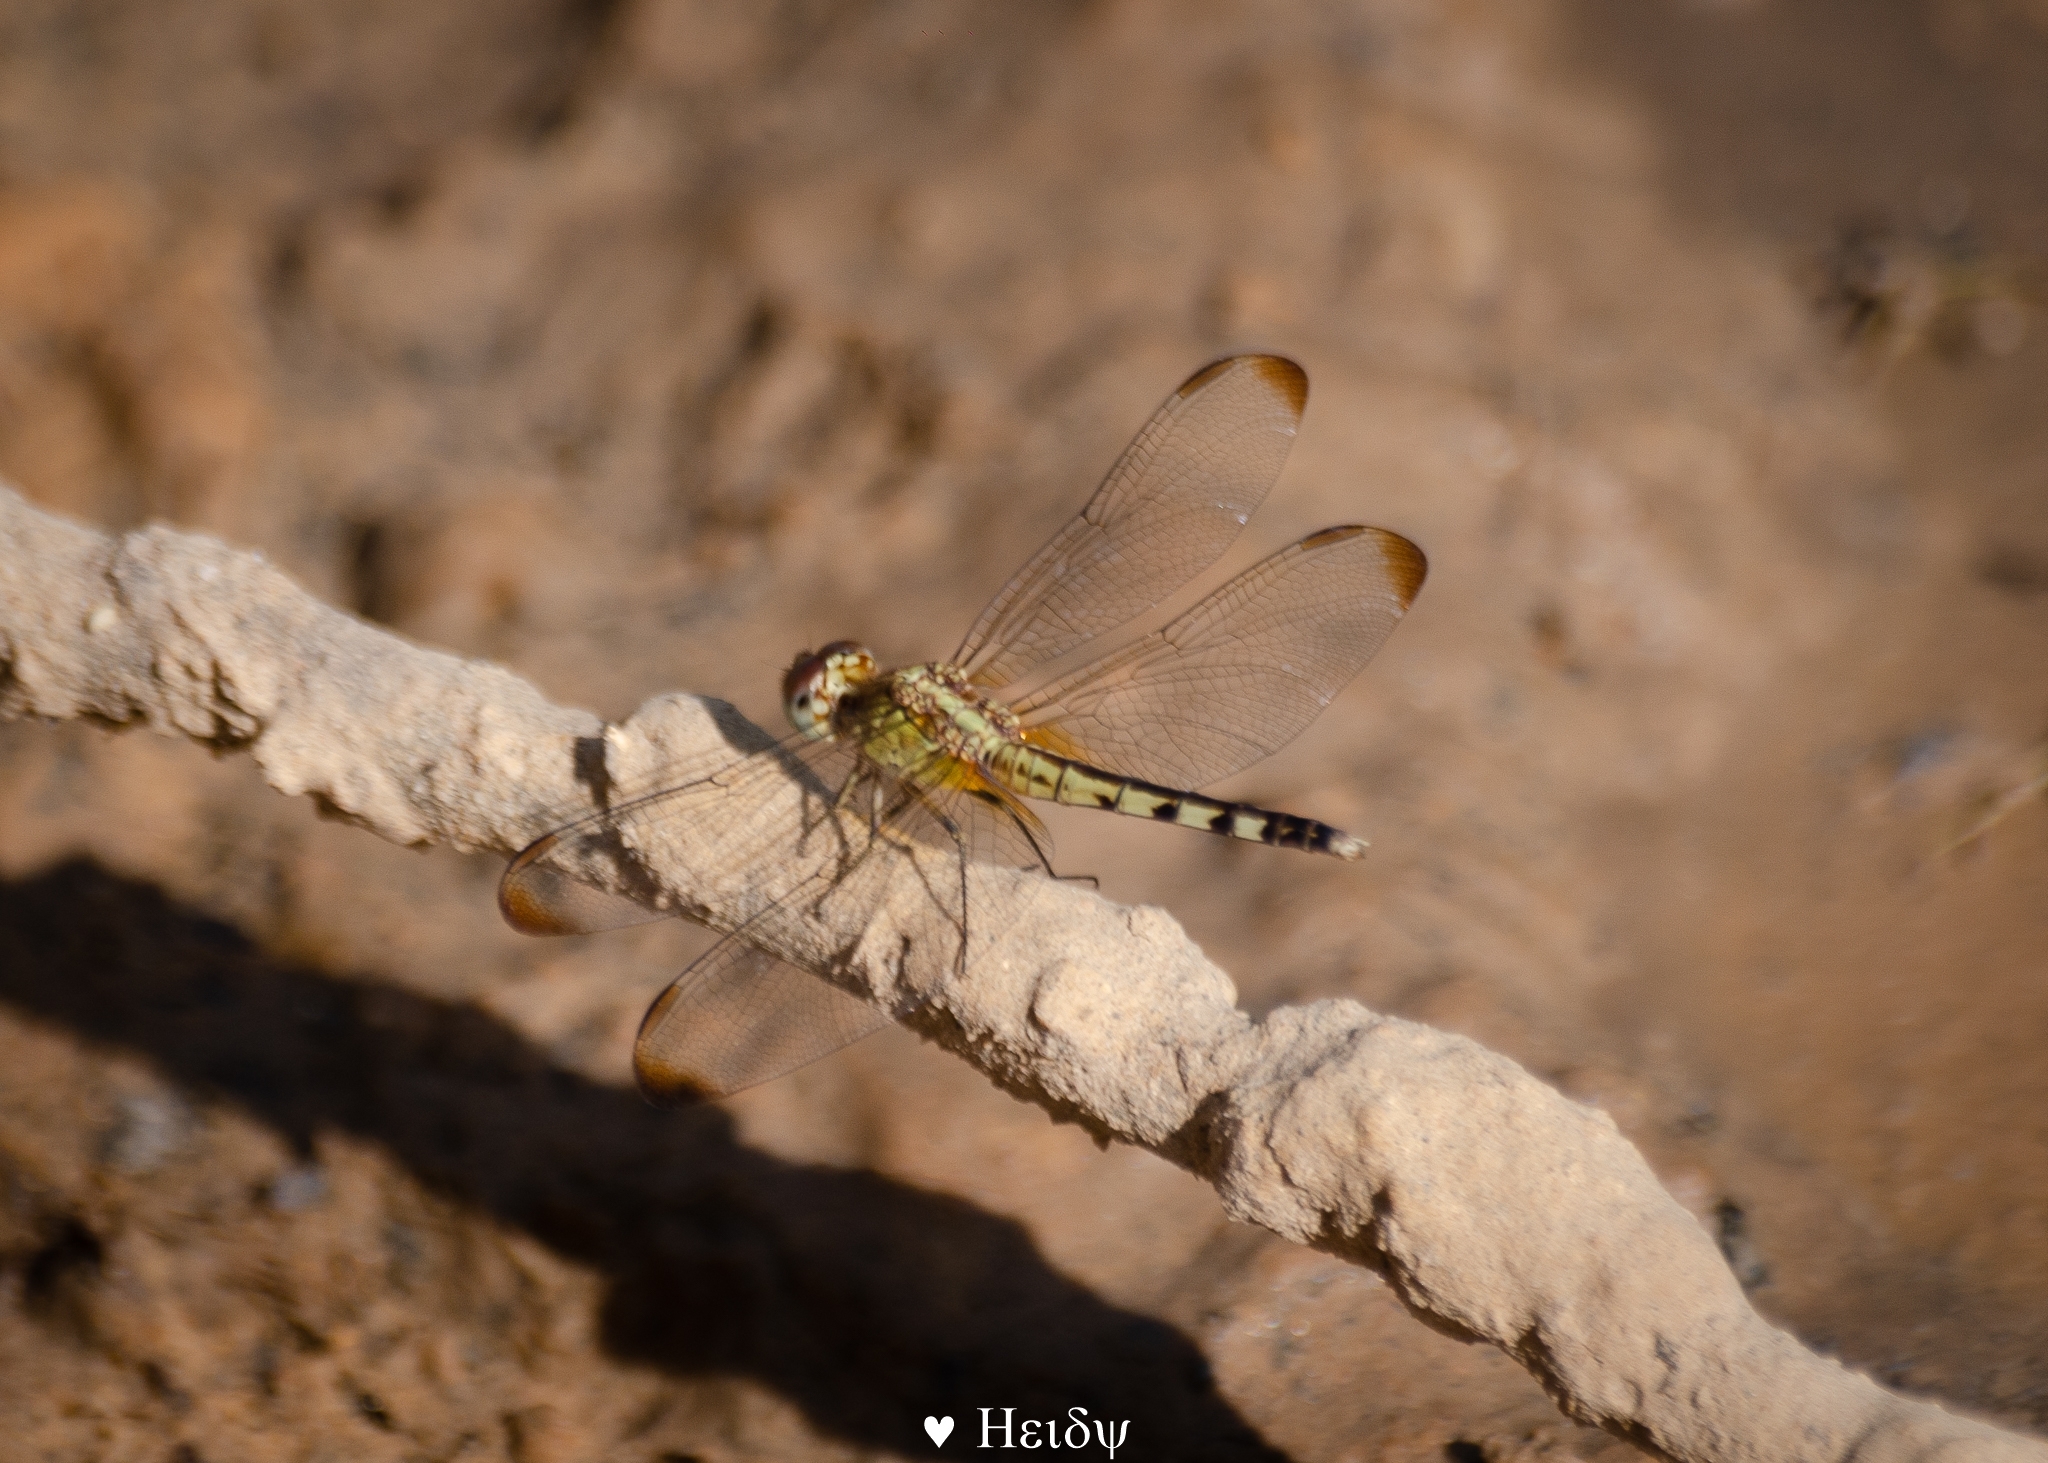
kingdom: Animalia
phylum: Arthropoda
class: Insecta
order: Odonata
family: Libellulidae
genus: Erythrodiplax
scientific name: Erythrodiplax umbrata
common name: Band-winged dragonlet
